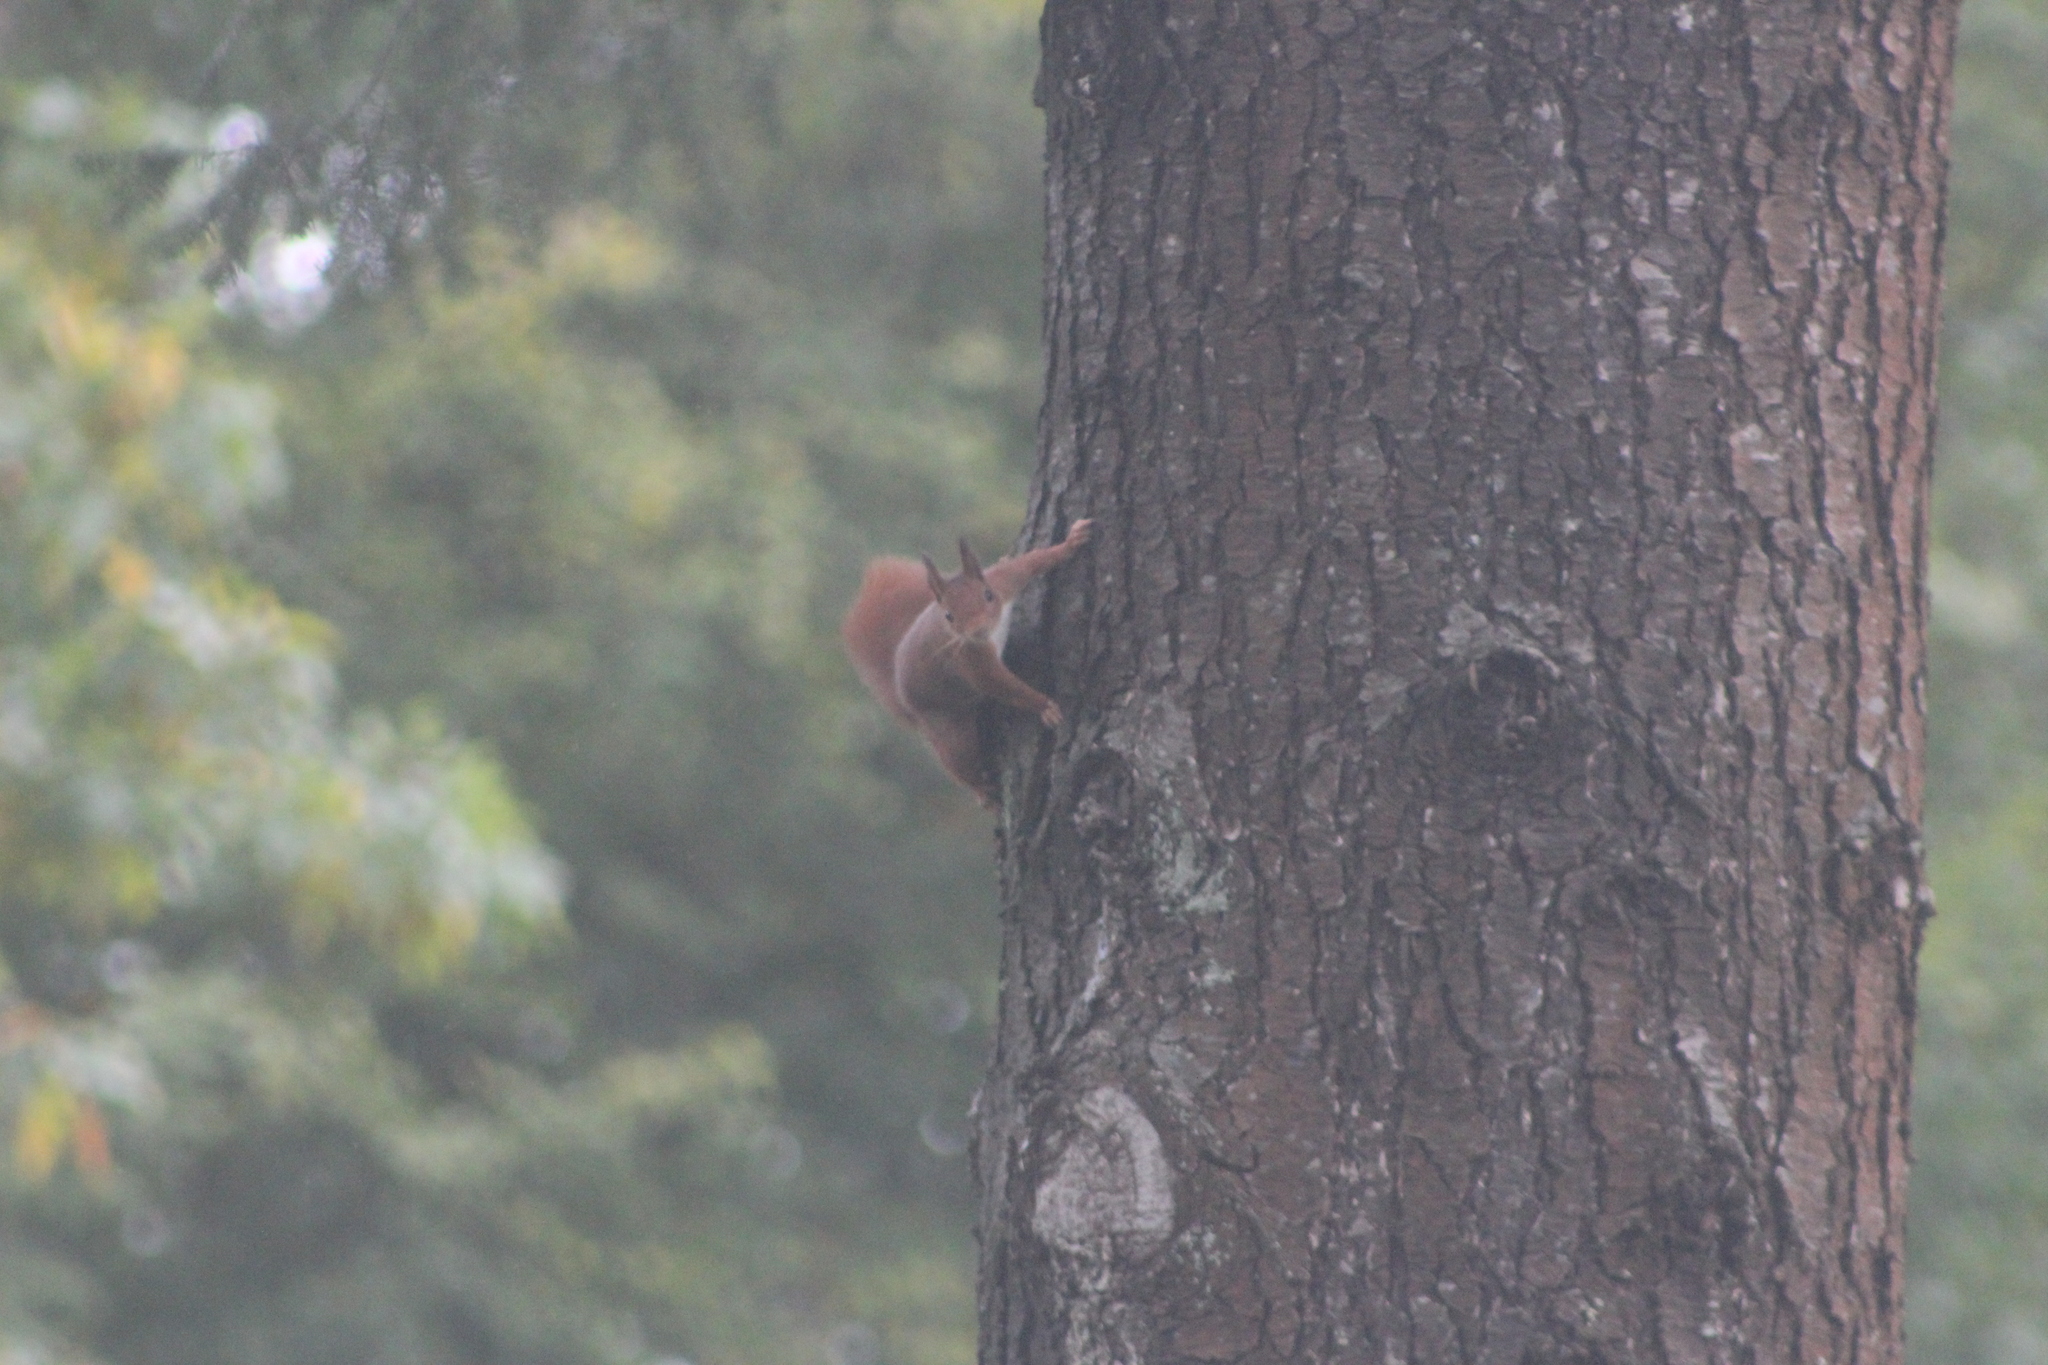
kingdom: Animalia
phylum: Chordata
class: Mammalia
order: Rodentia
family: Sciuridae
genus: Sciurus
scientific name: Sciurus vulgaris
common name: Eurasian red squirrel
